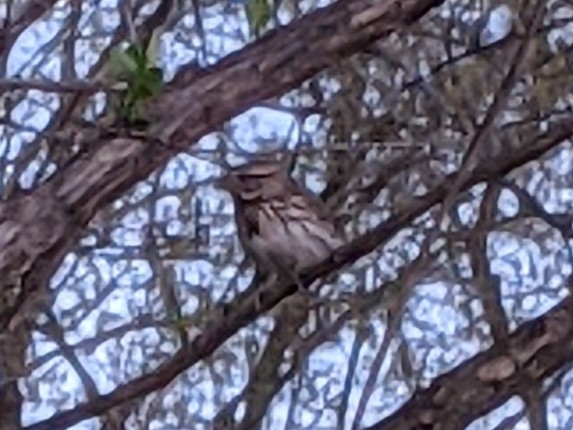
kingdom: Animalia
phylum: Chordata
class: Aves
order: Passeriformes
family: Passerellidae
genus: Melospiza
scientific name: Melospiza melodia
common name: Song sparrow
